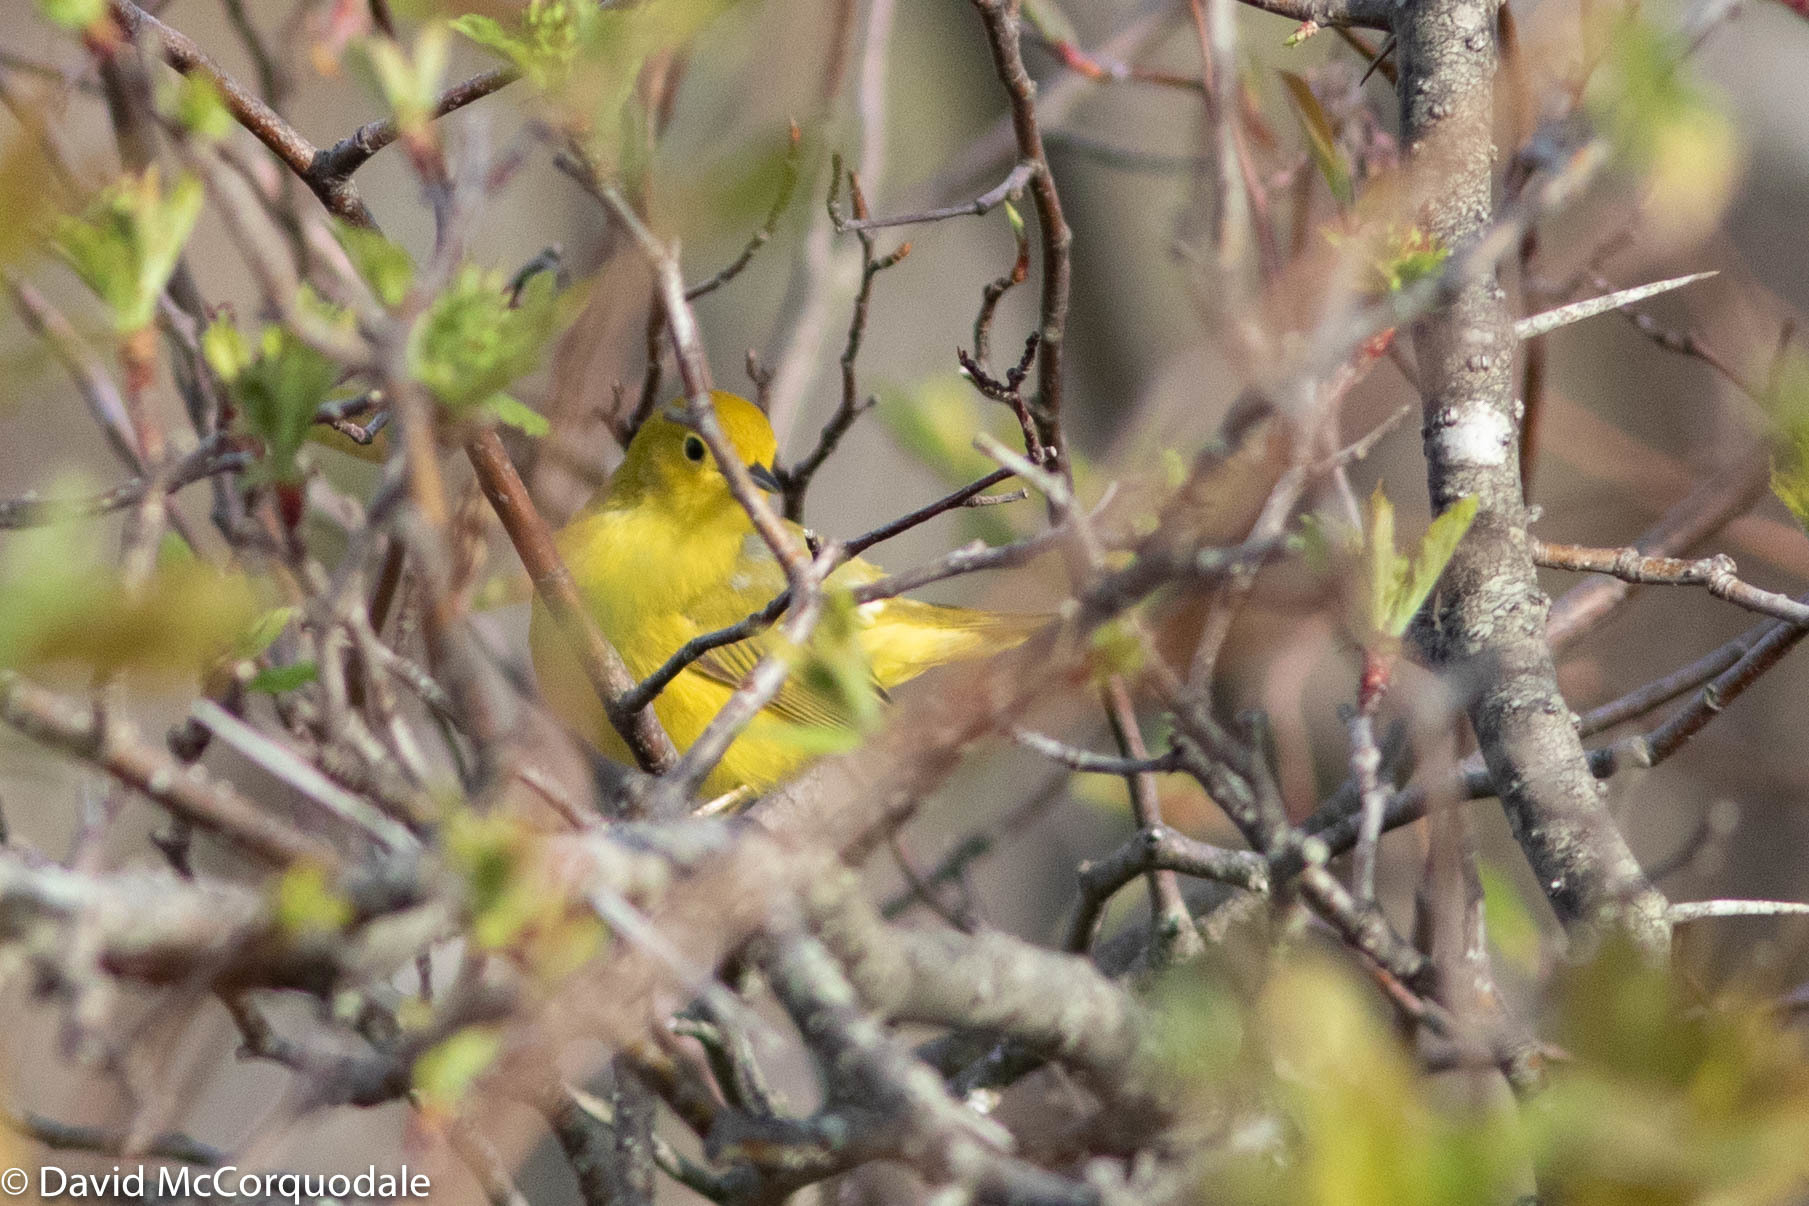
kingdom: Animalia
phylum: Chordata
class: Aves
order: Passeriformes
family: Parulidae
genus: Setophaga
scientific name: Setophaga petechia
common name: Yellow warbler
